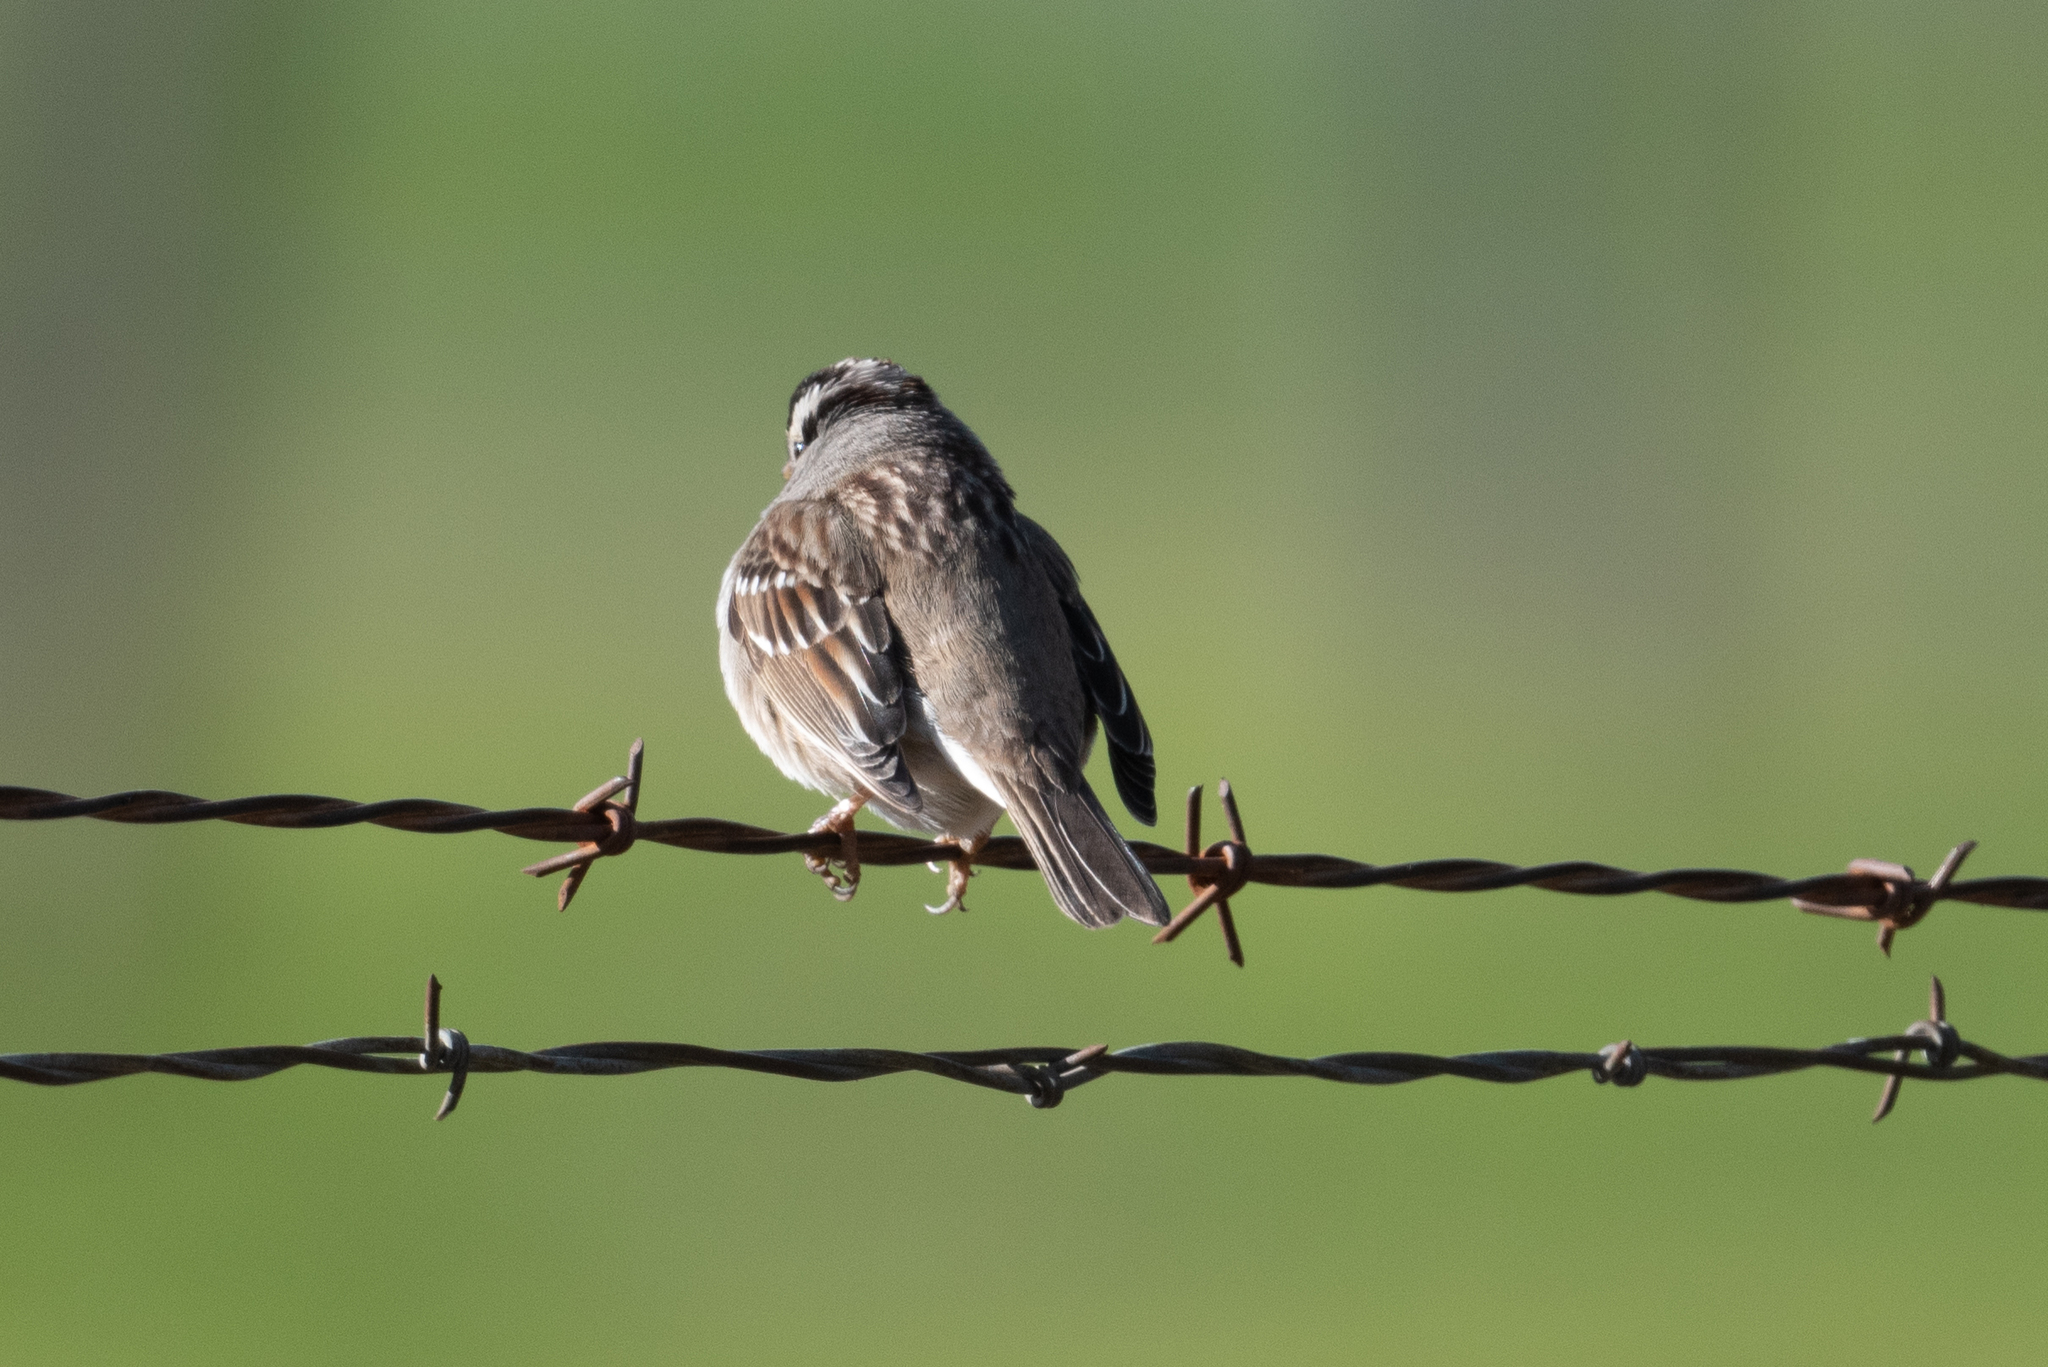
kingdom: Animalia
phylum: Chordata
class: Aves
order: Passeriformes
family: Passerellidae
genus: Zonotrichia
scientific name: Zonotrichia leucophrys
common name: White-crowned sparrow
